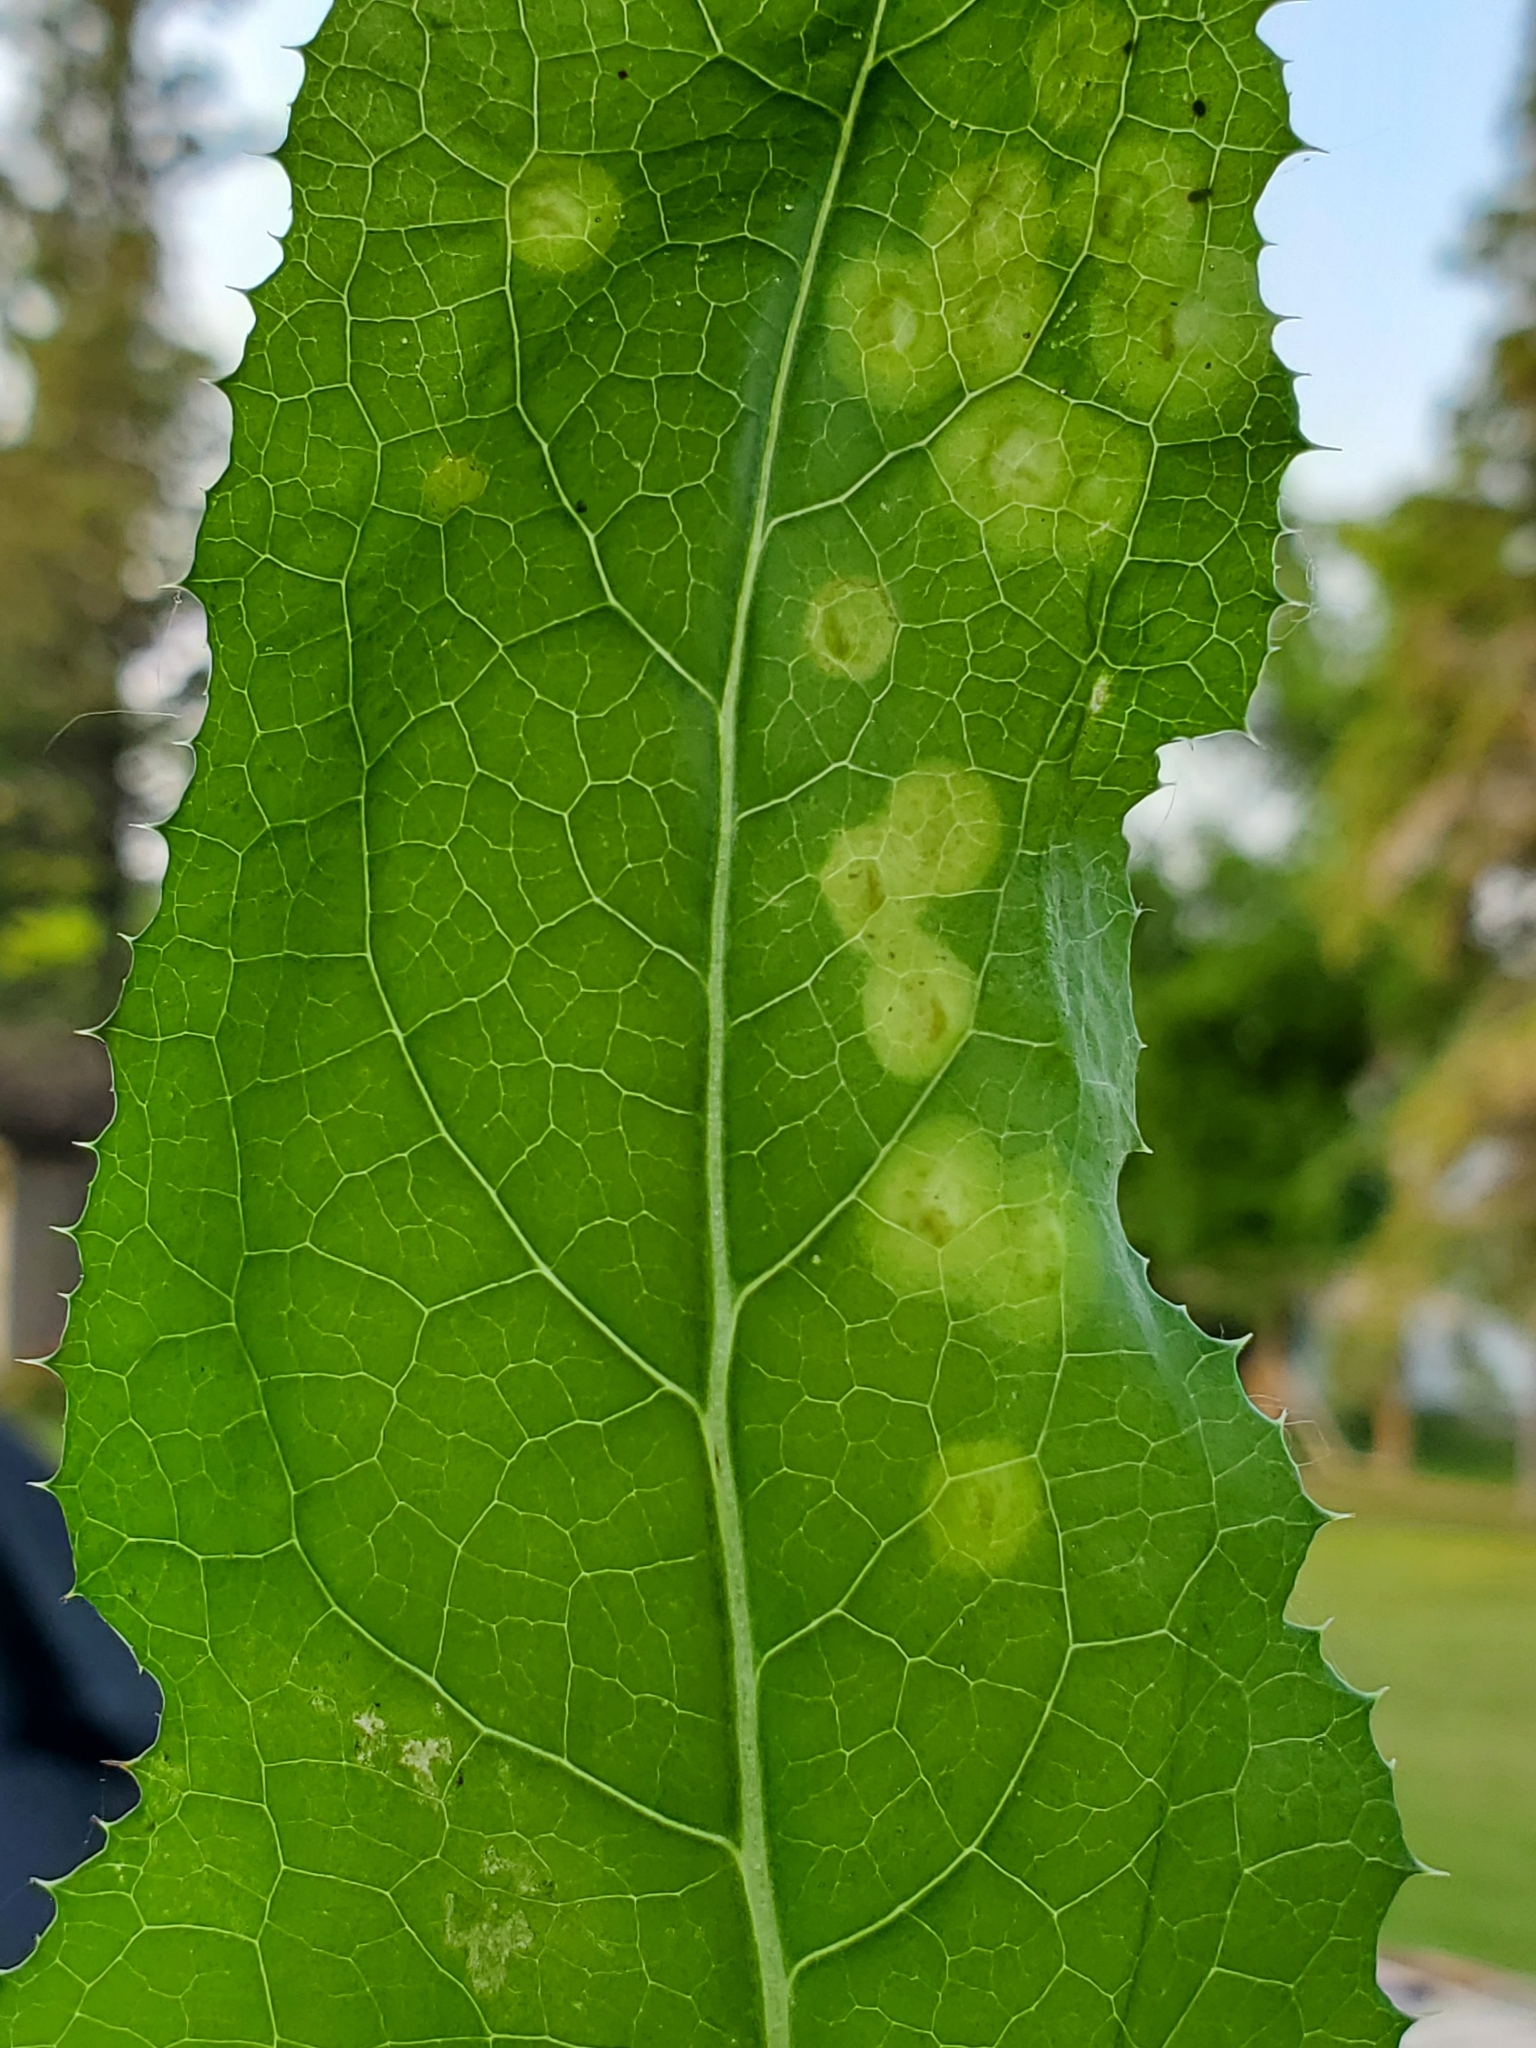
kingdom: Animalia
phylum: Arthropoda
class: Insecta
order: Diptera
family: Cecidomyiidae
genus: Cystiphora
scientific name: Cystiphora sonchi
